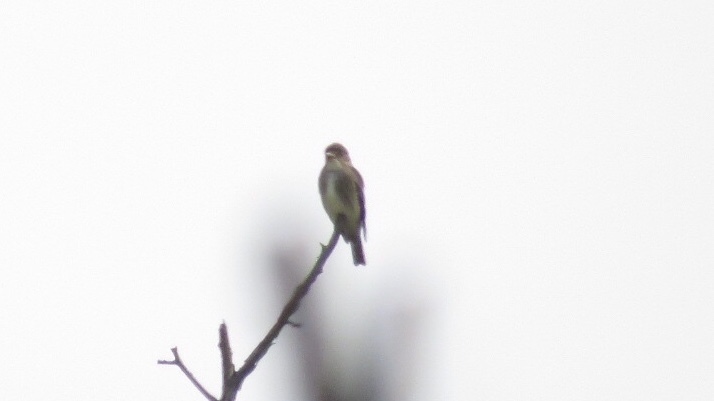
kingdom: Animalia
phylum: Chordata
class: Aves
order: Passeriformes
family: Tyrannidae
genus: Contopus
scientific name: Contopus cooperi
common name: Olive-sided flycatcher
